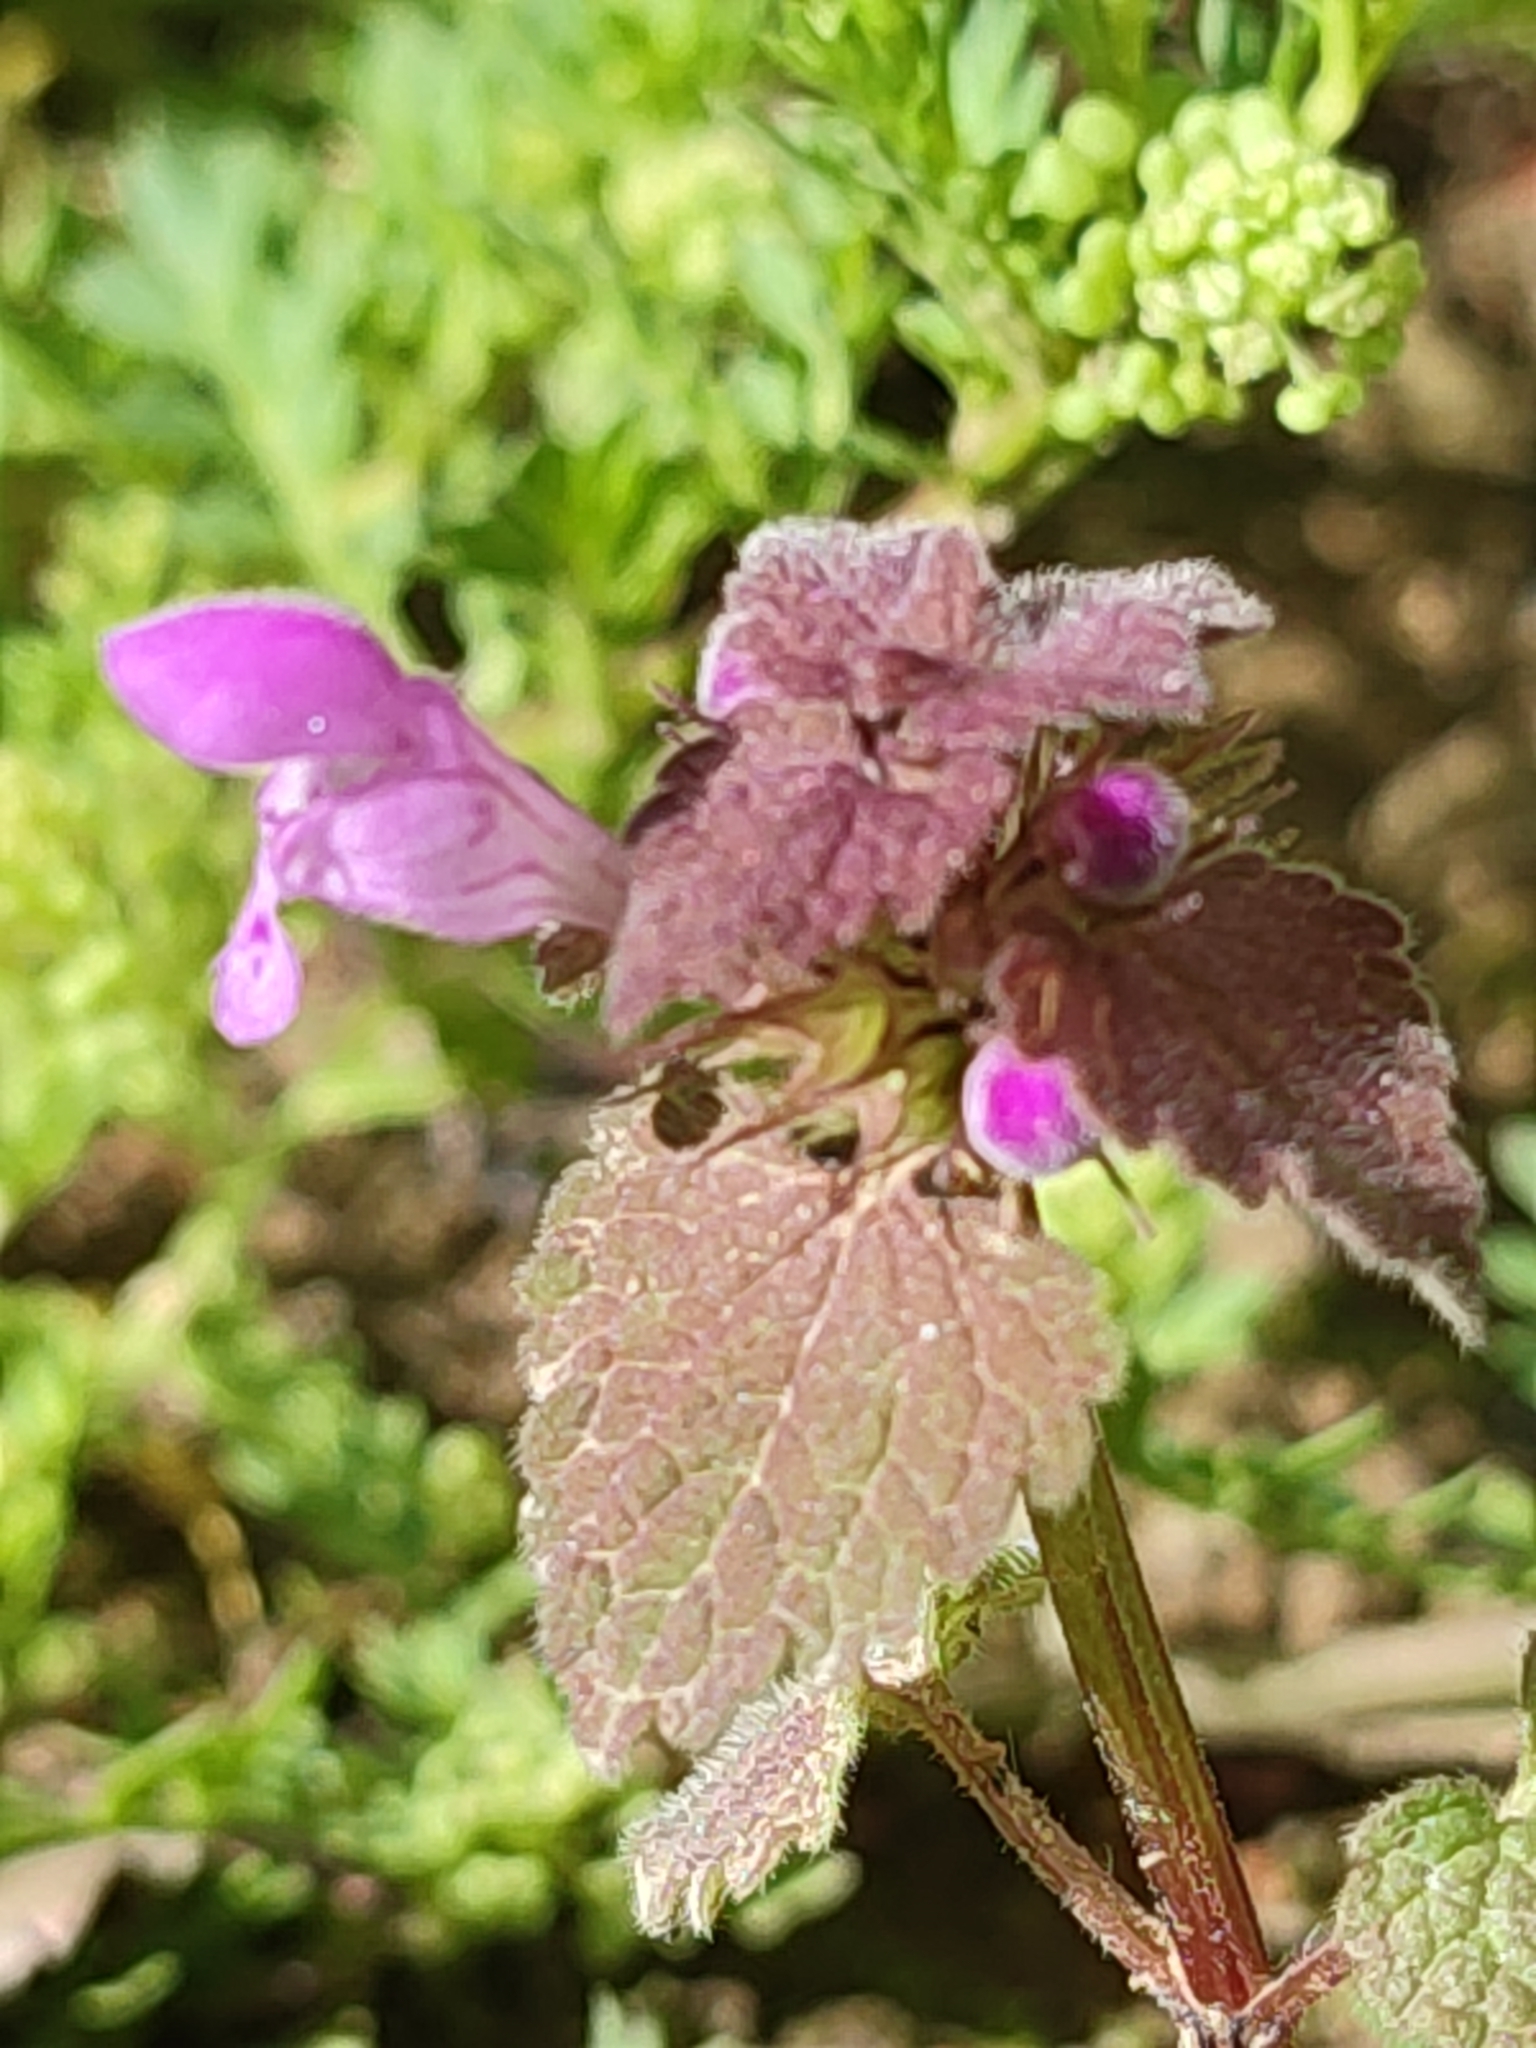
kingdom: Plantae
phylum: Tracheophyta
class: Magnoliopsida
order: Lamiales
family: Lamiaceae
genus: Lamium
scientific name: Lamium purpureum
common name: Red dead-nettle
